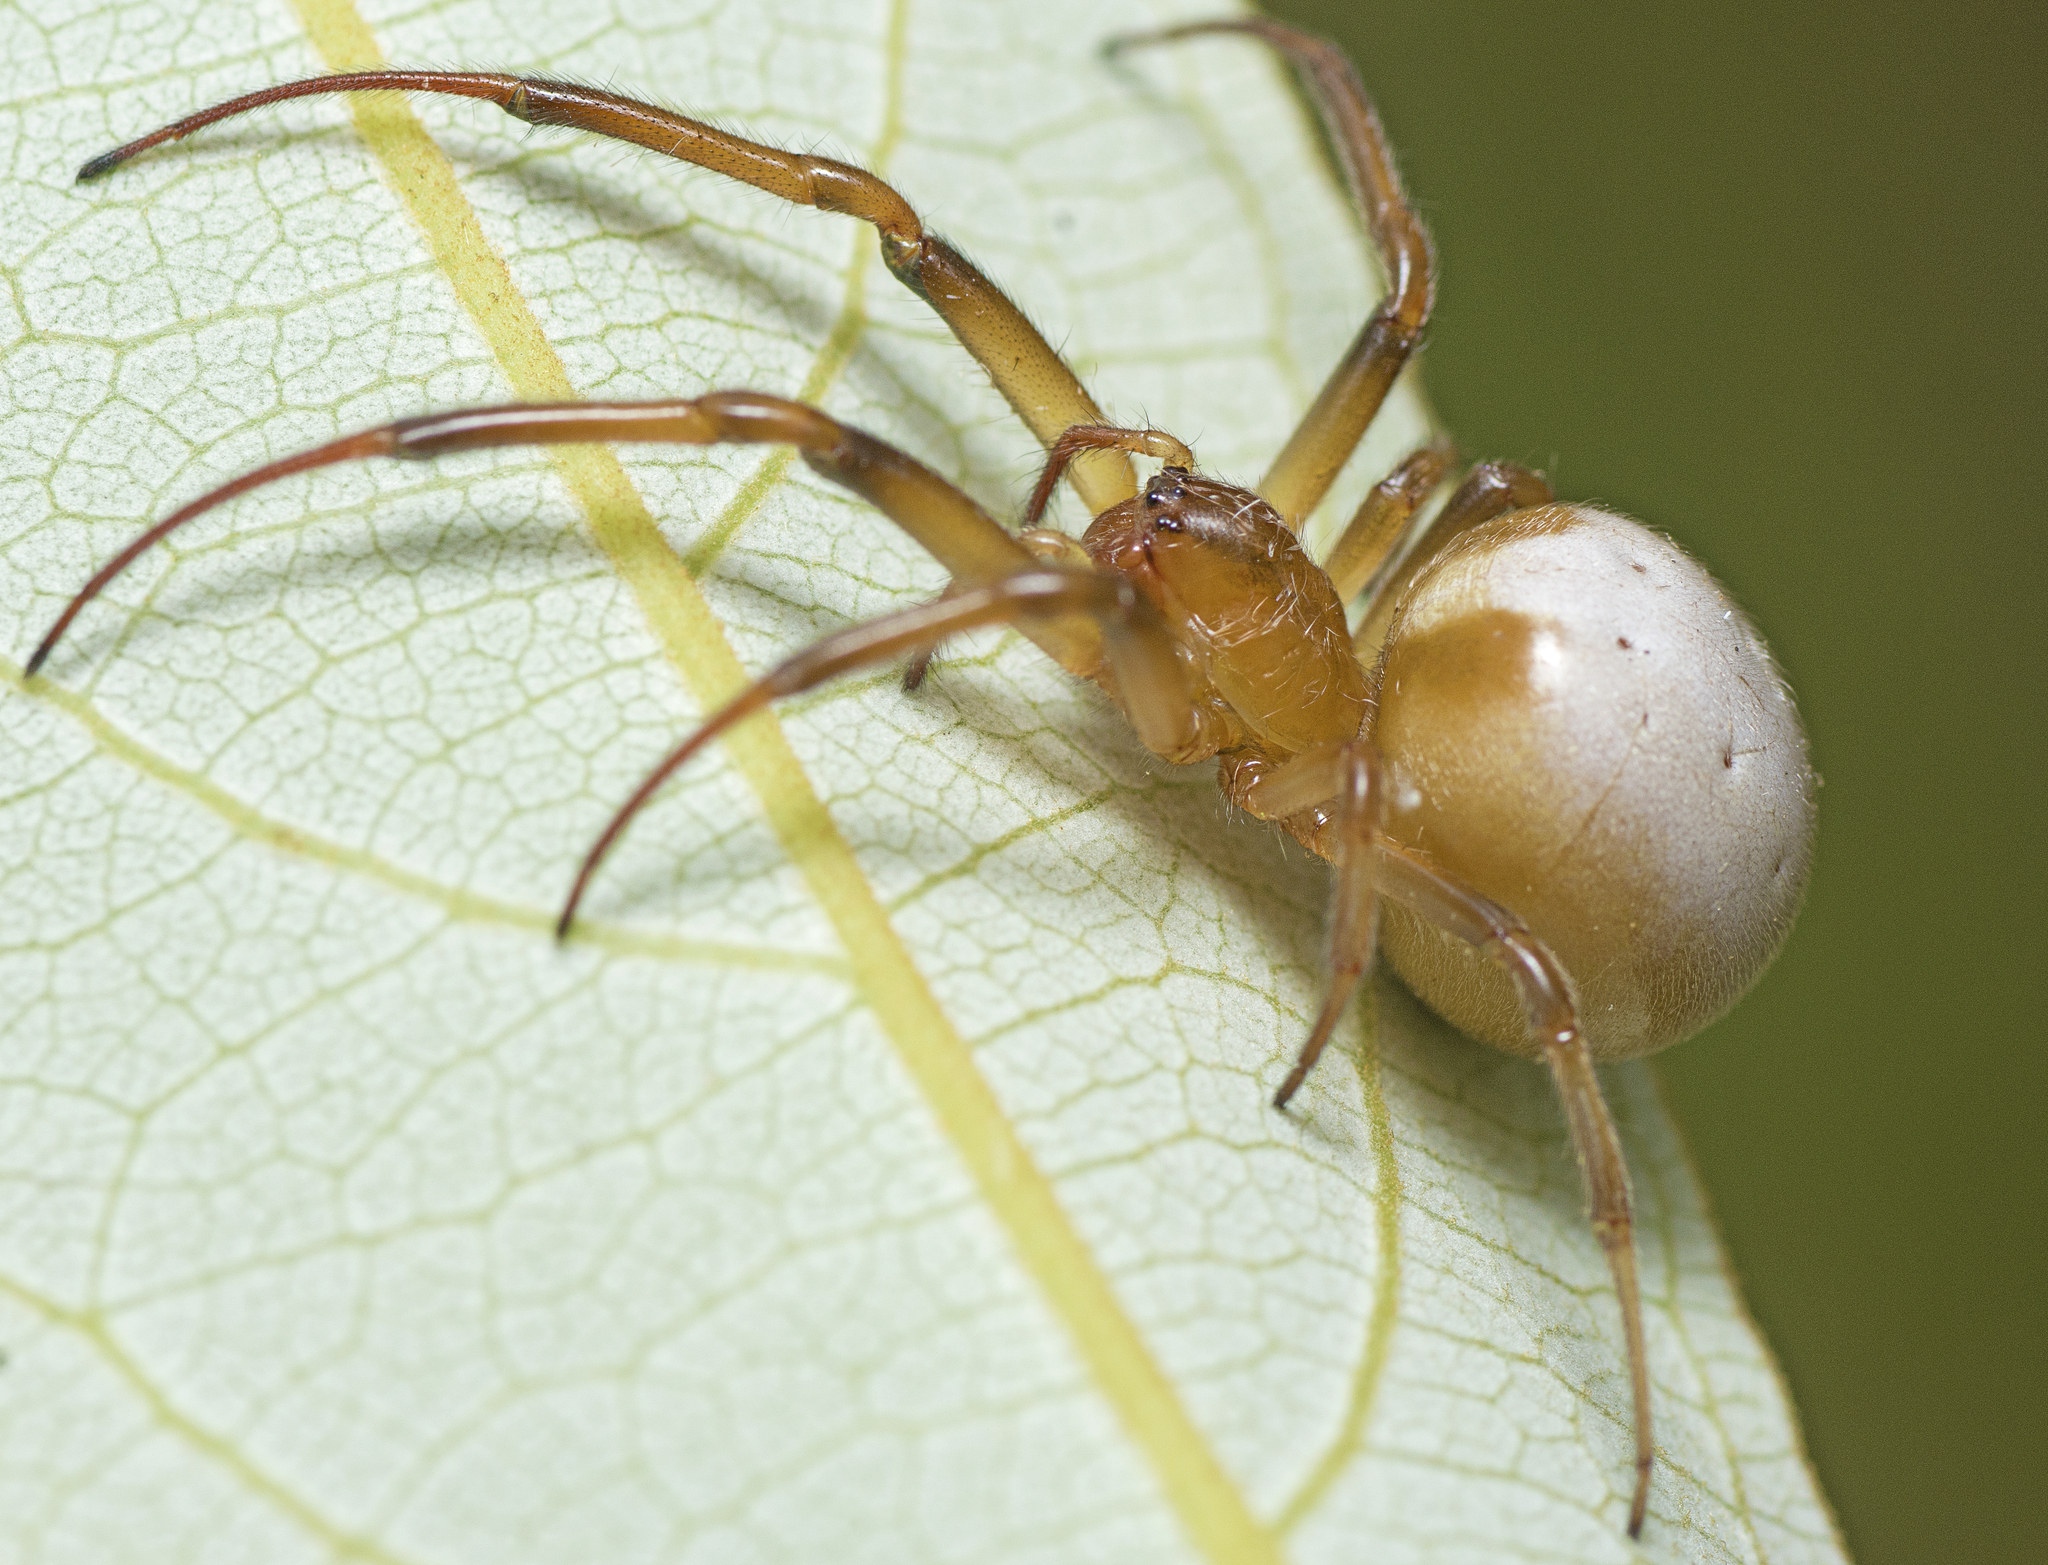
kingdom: Animalia
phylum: Arthropoda
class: Arachnida
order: Araneae
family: Araneidae
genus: Deliochus
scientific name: Deliochus idoneus
